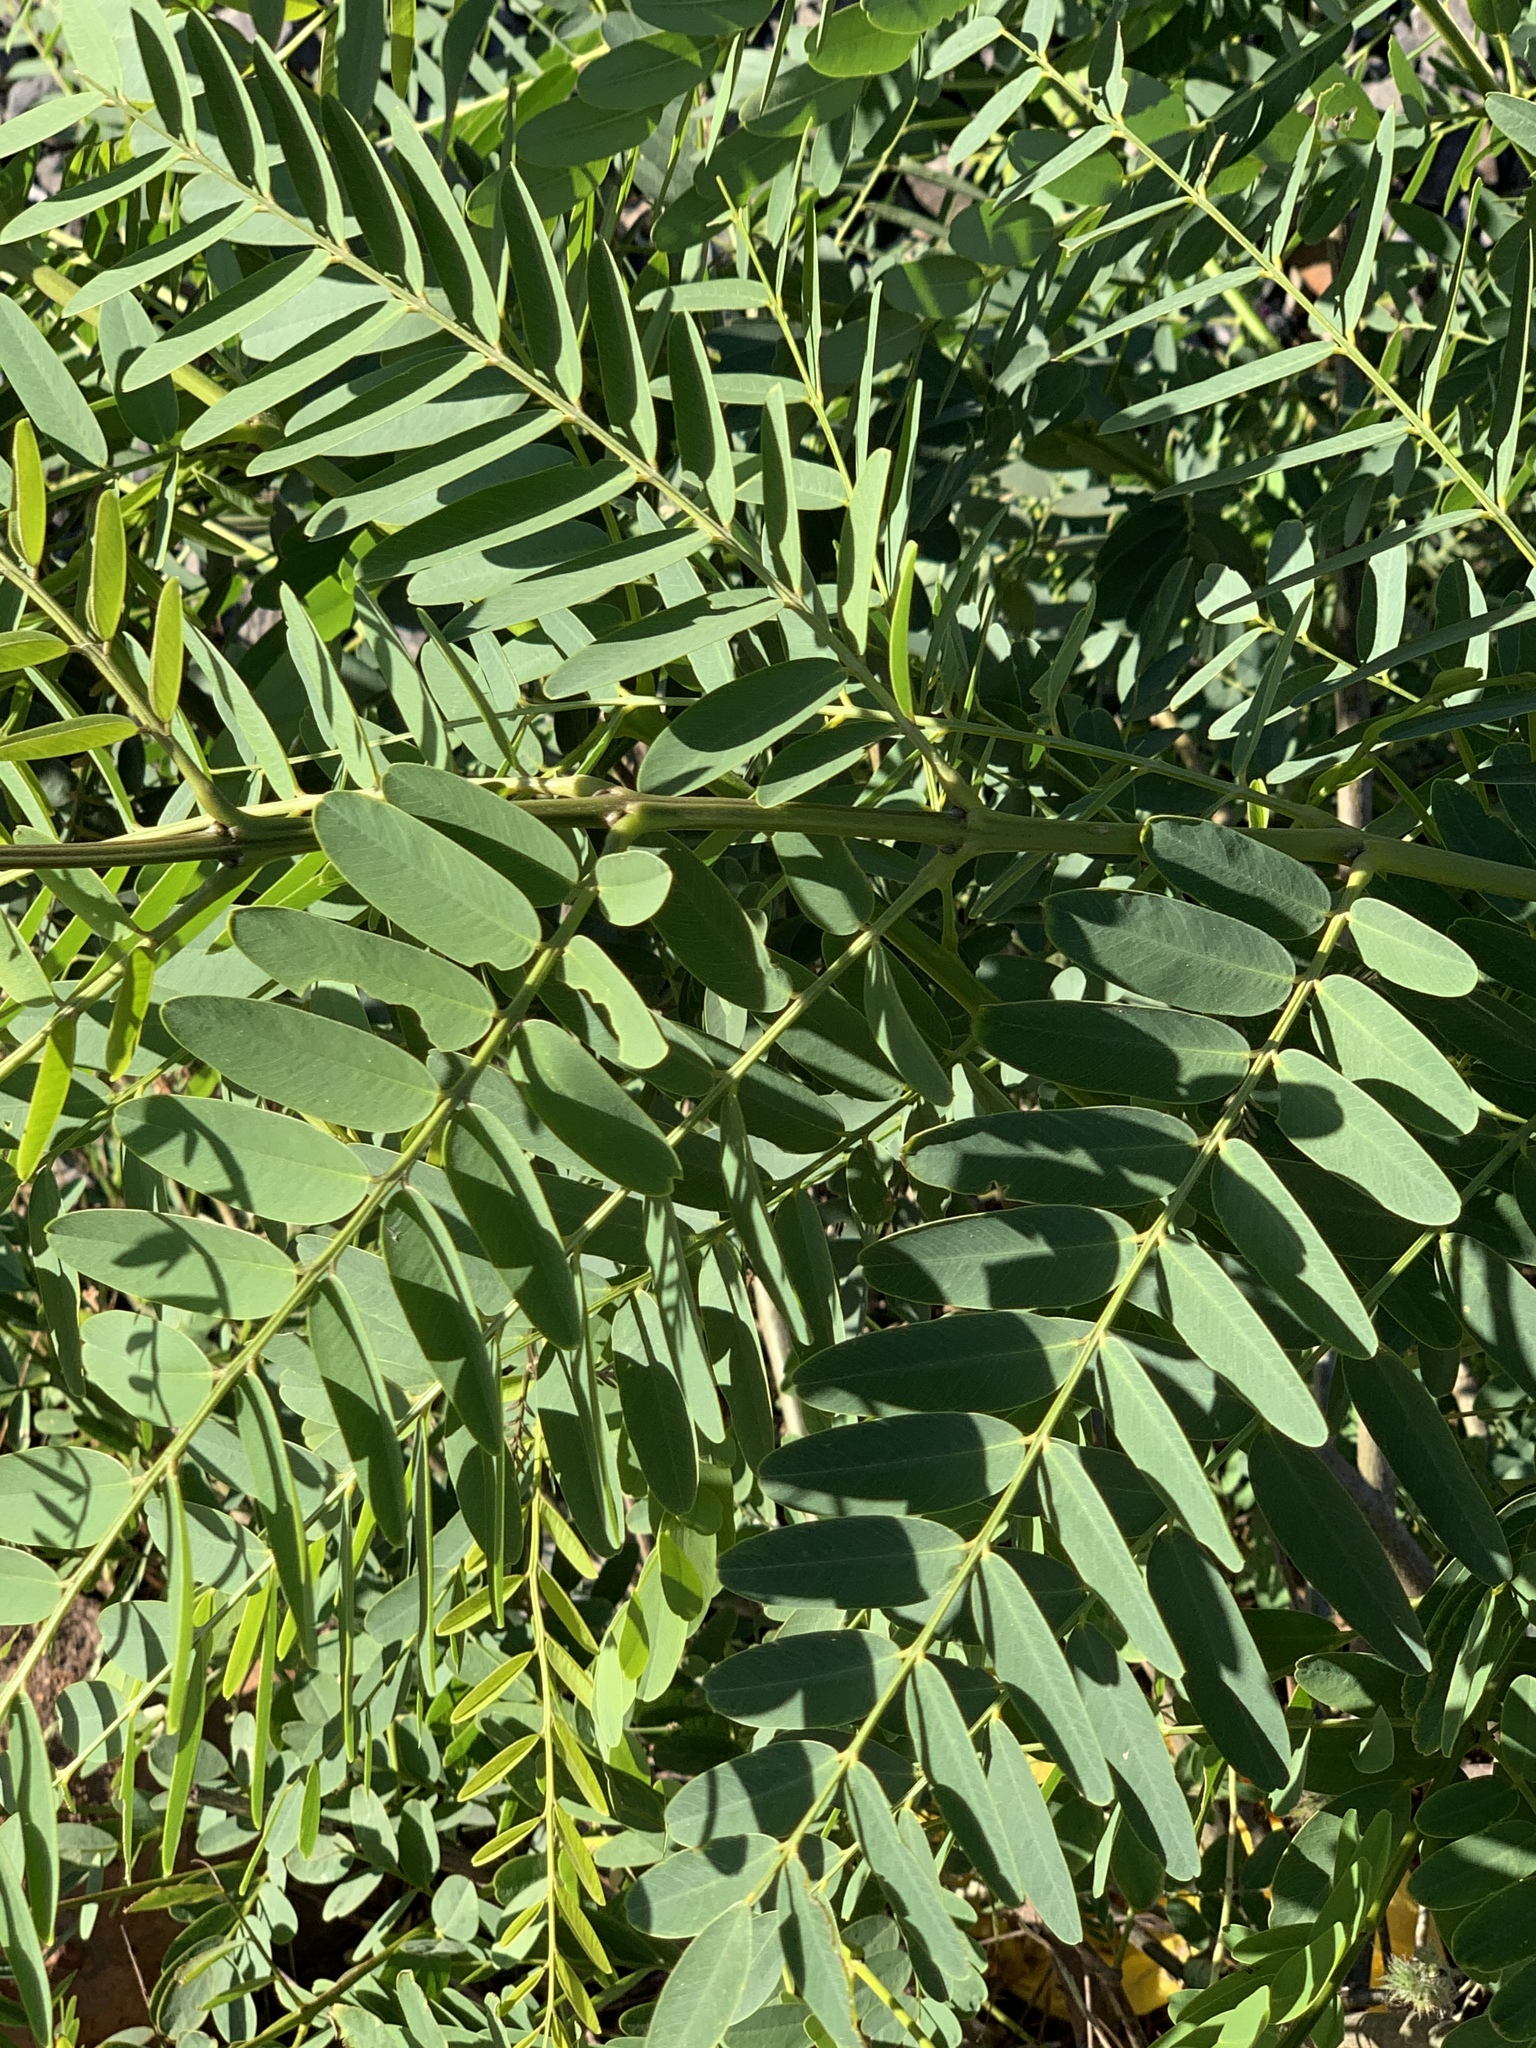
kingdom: Plantae
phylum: Tracheophyta
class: Magnoliopsida
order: Fabales
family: Fabaceae
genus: Tipuana
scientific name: Tipuana tipu
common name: Tiputree
